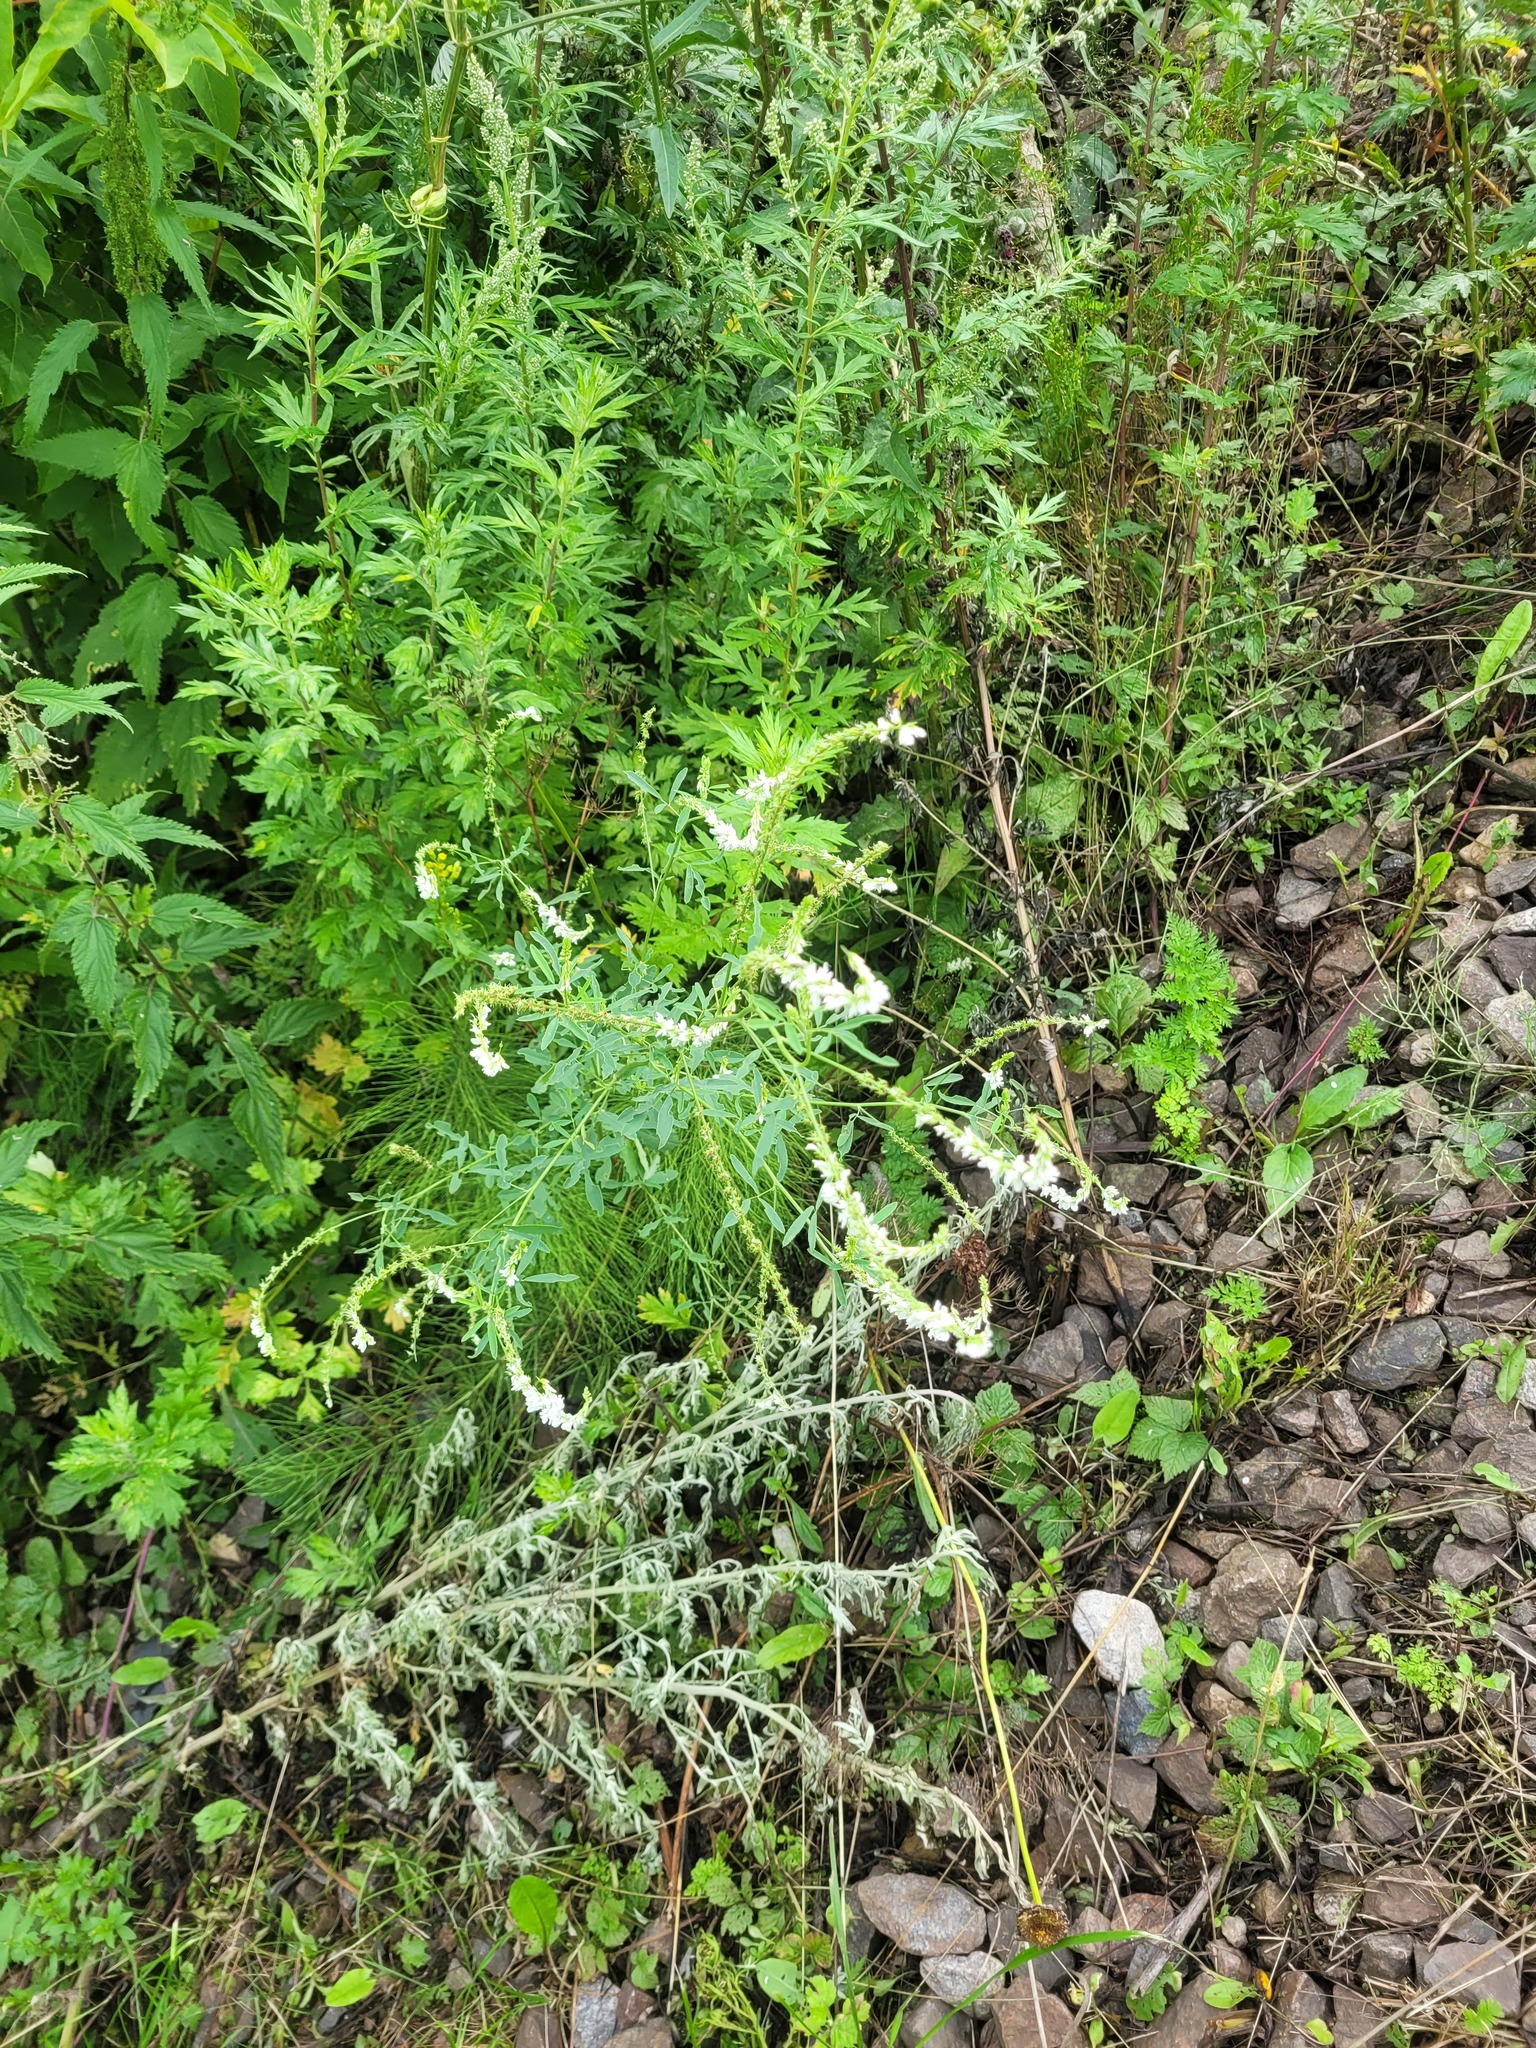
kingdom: Plantae
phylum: Tracheophyta
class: Magnoliopsida
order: Fabales
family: Fabaceae
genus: Melilotus
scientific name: Melilotus albus
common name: White melilot
